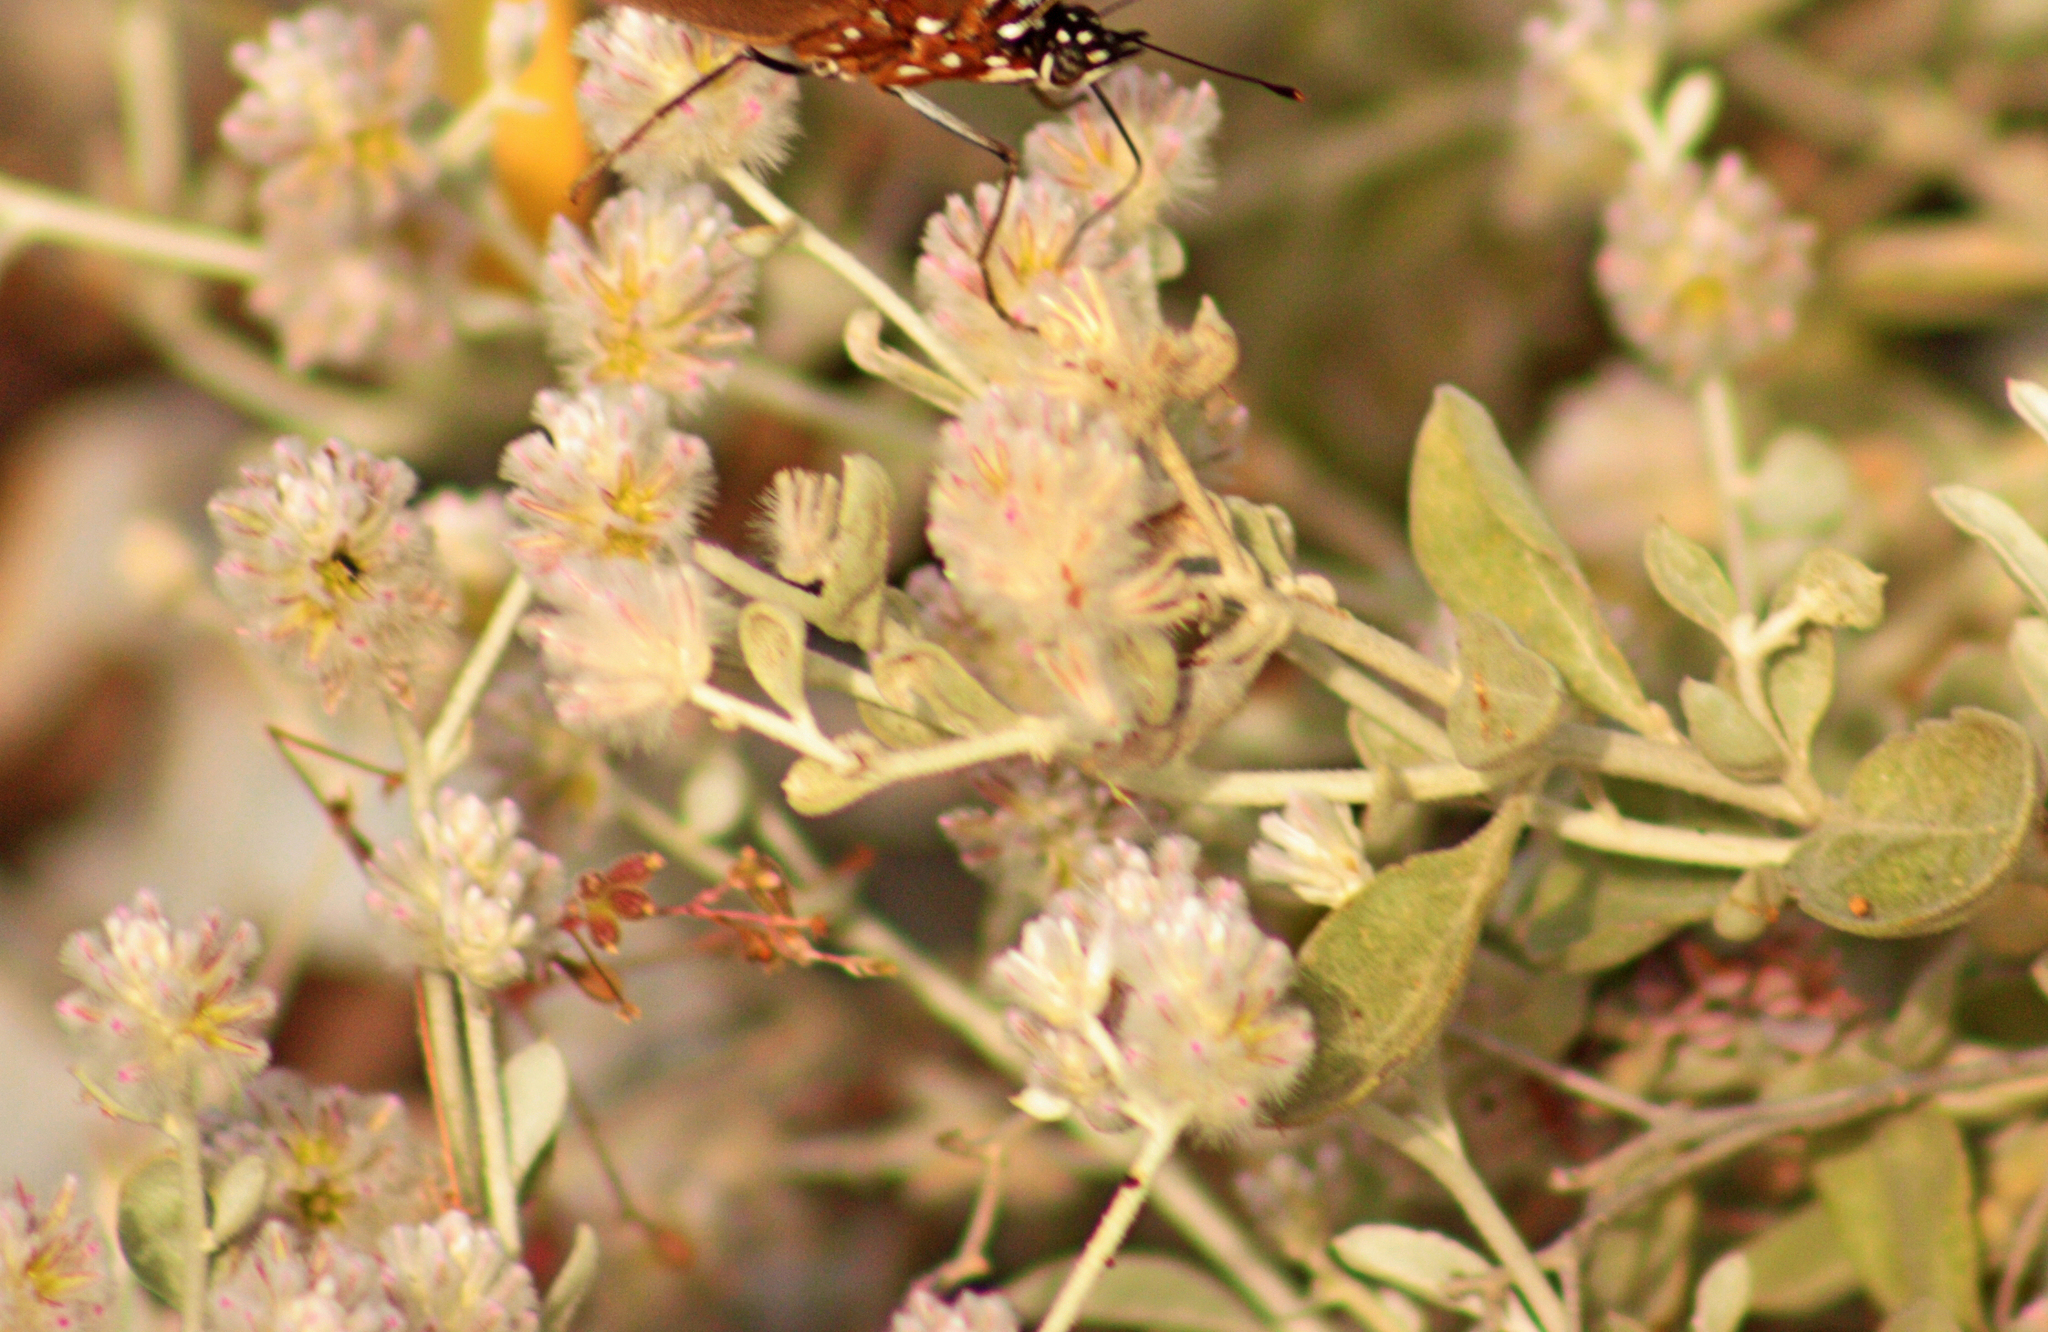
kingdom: Plantae
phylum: Tracheophyta
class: Magnoliopsida
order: Caryophyllales
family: Amaranthaceae
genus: Ptilotus
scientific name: Ptilotus obovatus
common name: Cottonbush
